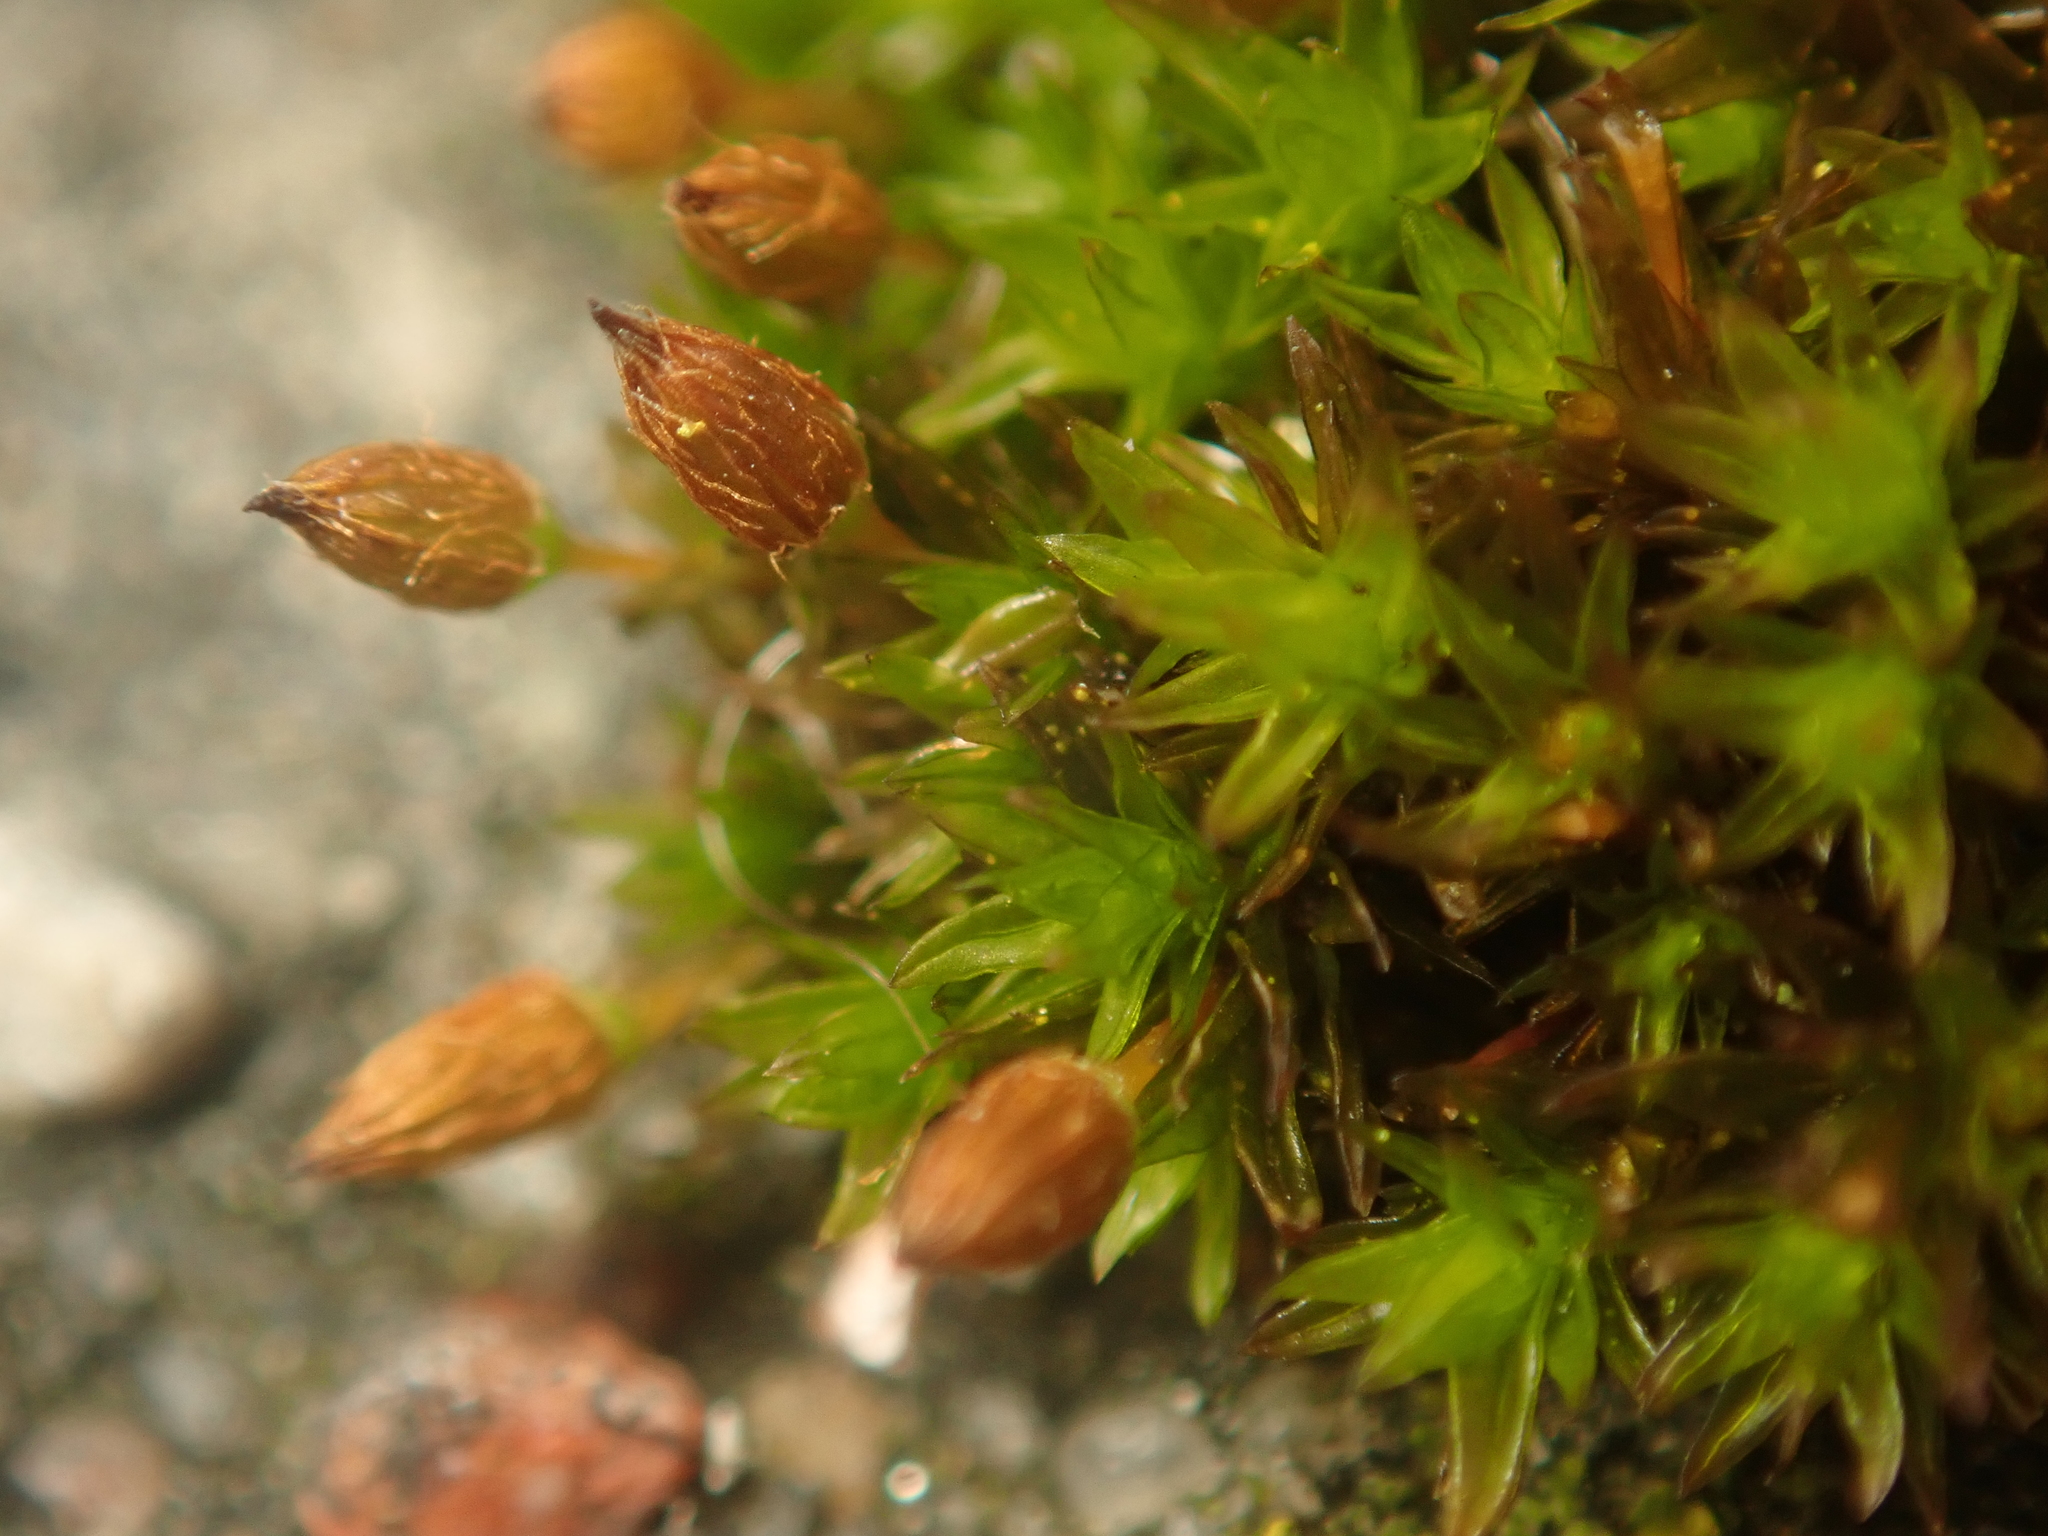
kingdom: Plantae
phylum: Bryophyta
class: Bryopsida
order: Orthotrichales
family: Orthotrichaceae
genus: Orthotrichum
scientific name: Orthotrichum anomalum
